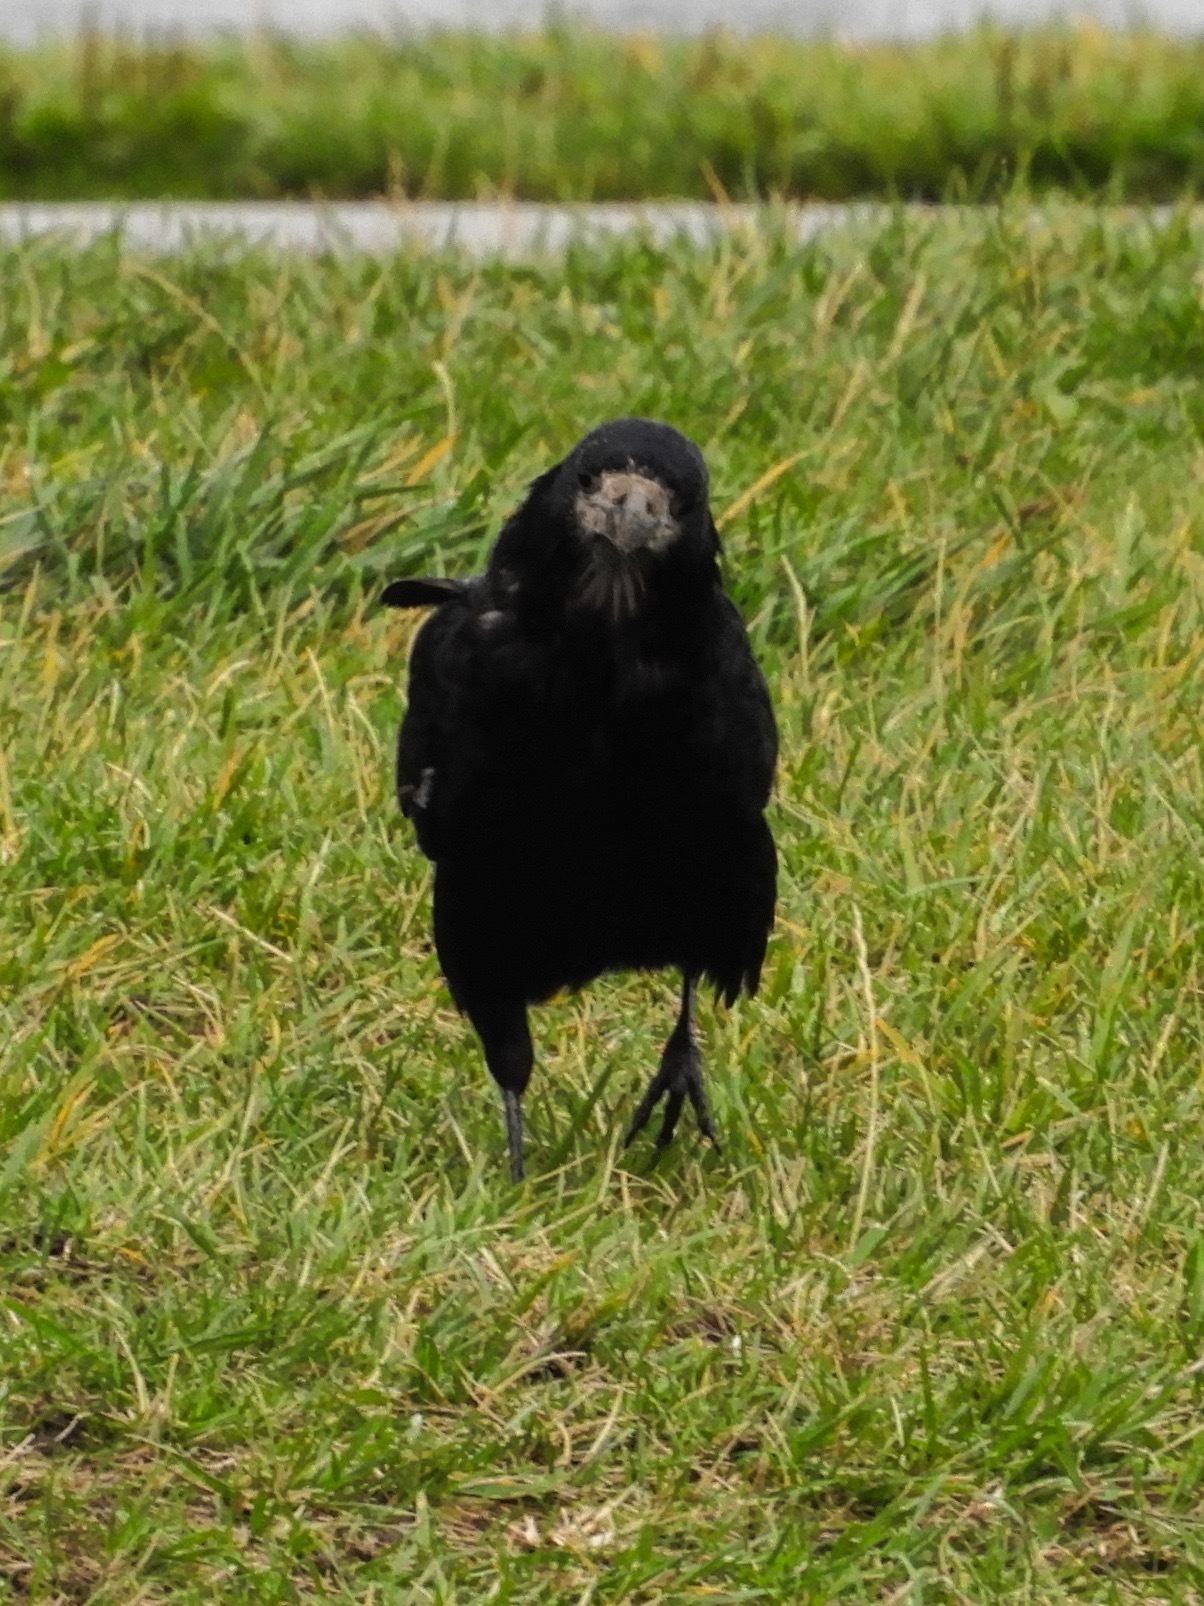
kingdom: Animalia
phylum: Chordata
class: Aves
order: Passeriformes
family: Corvidae
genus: Corvus
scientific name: Corvus frugilegus
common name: Rook
